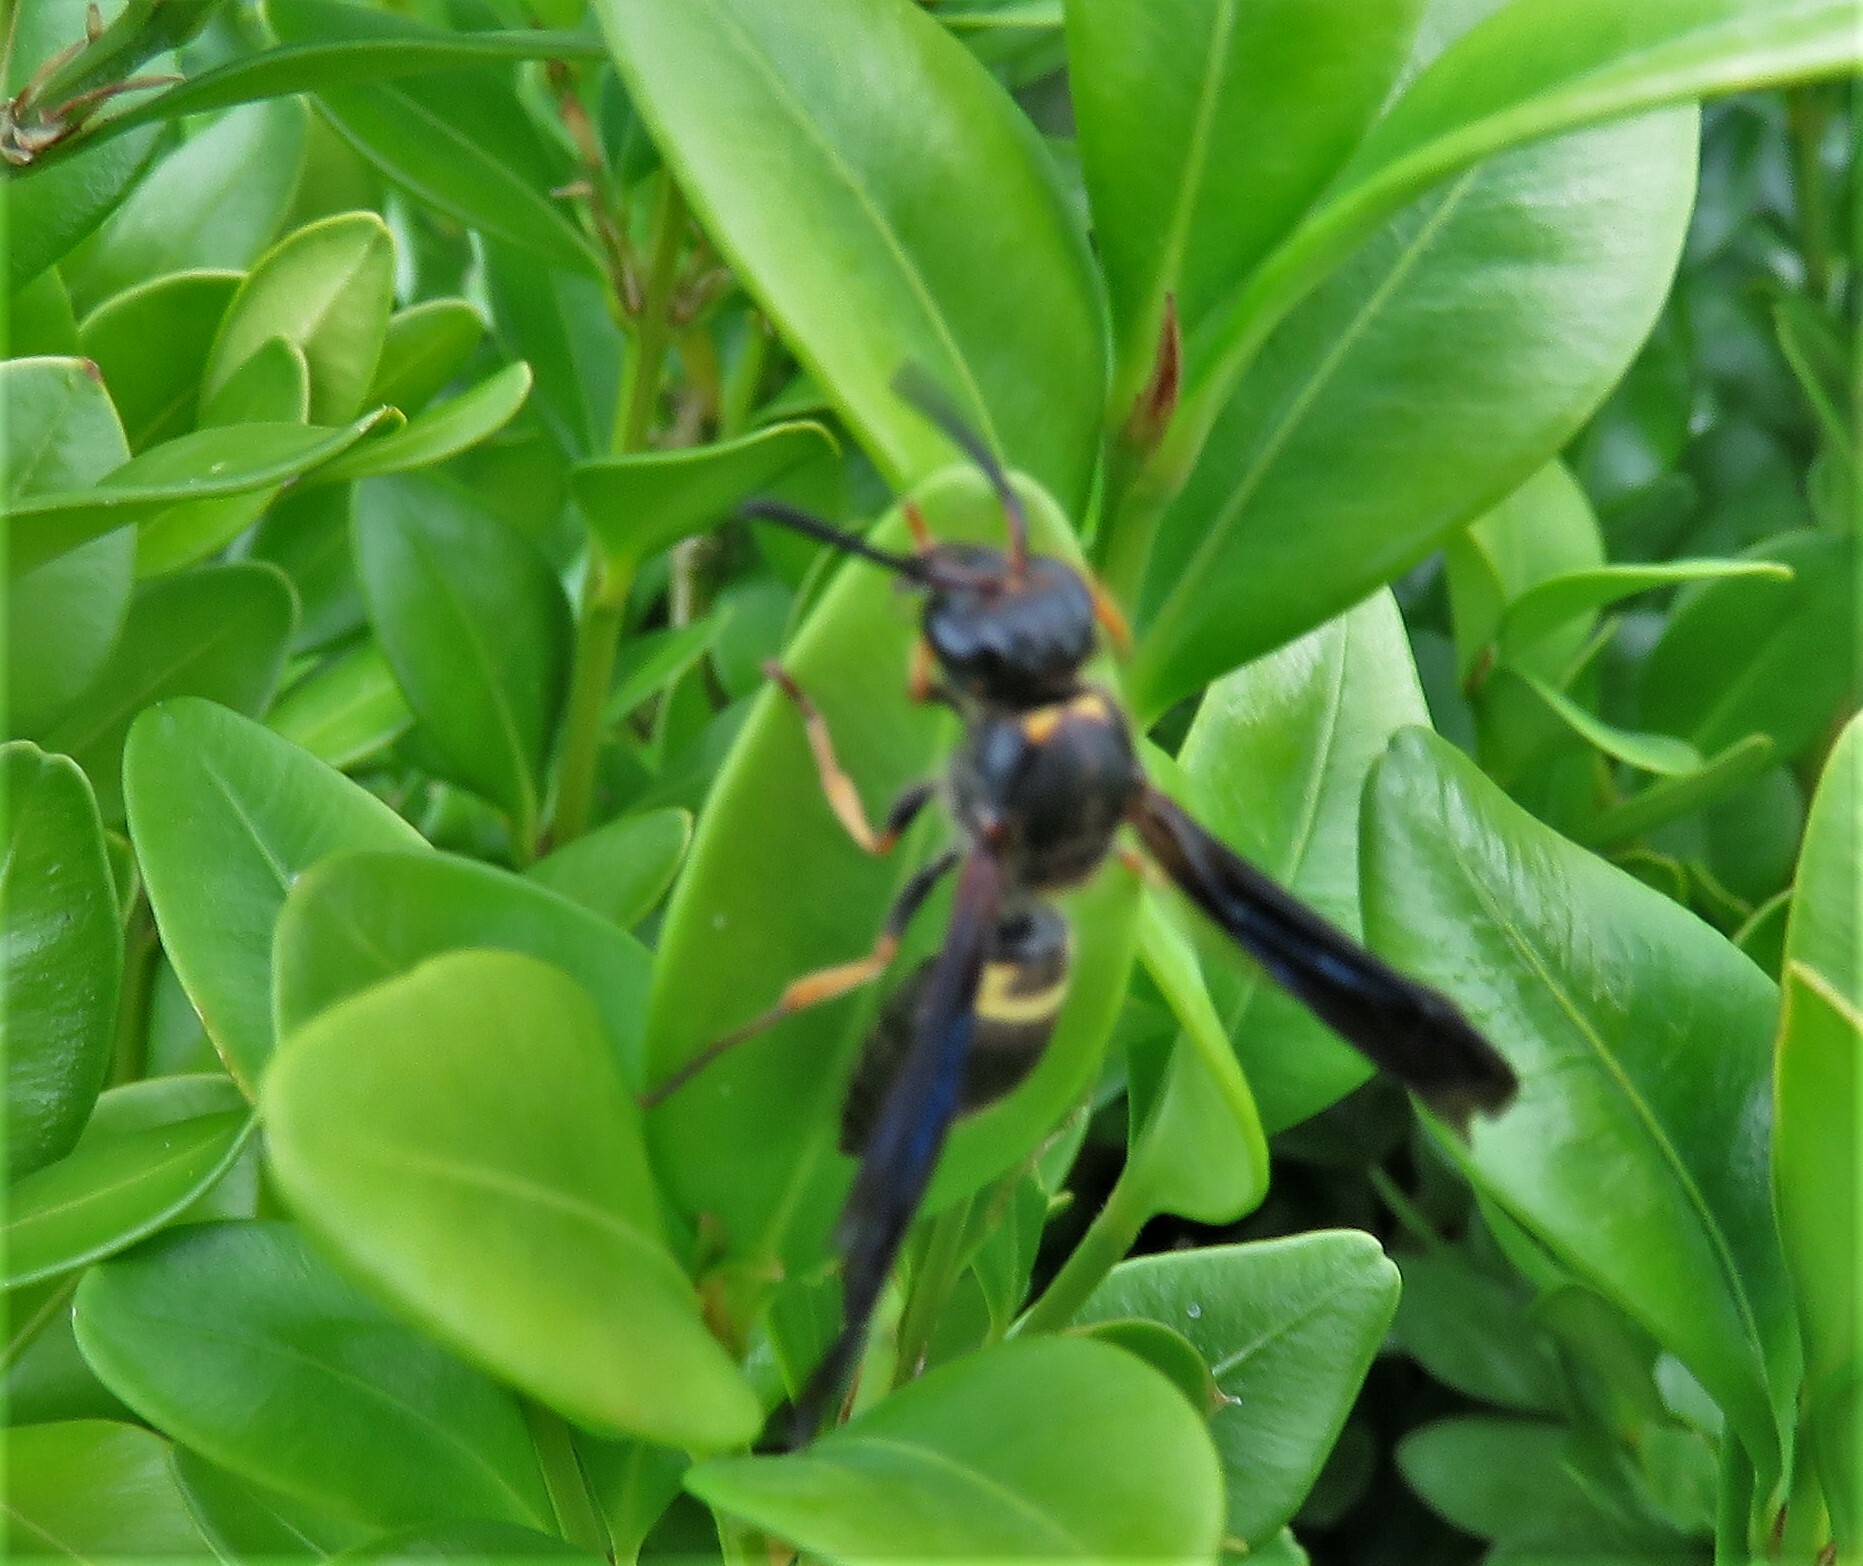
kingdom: Animalia
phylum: Arthropoda
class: Insecta
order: Hymenoptera
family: Vespidae
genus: Ancistrocerus
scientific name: Ancistrocerus unifasciatus
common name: One-banded mason wasp
